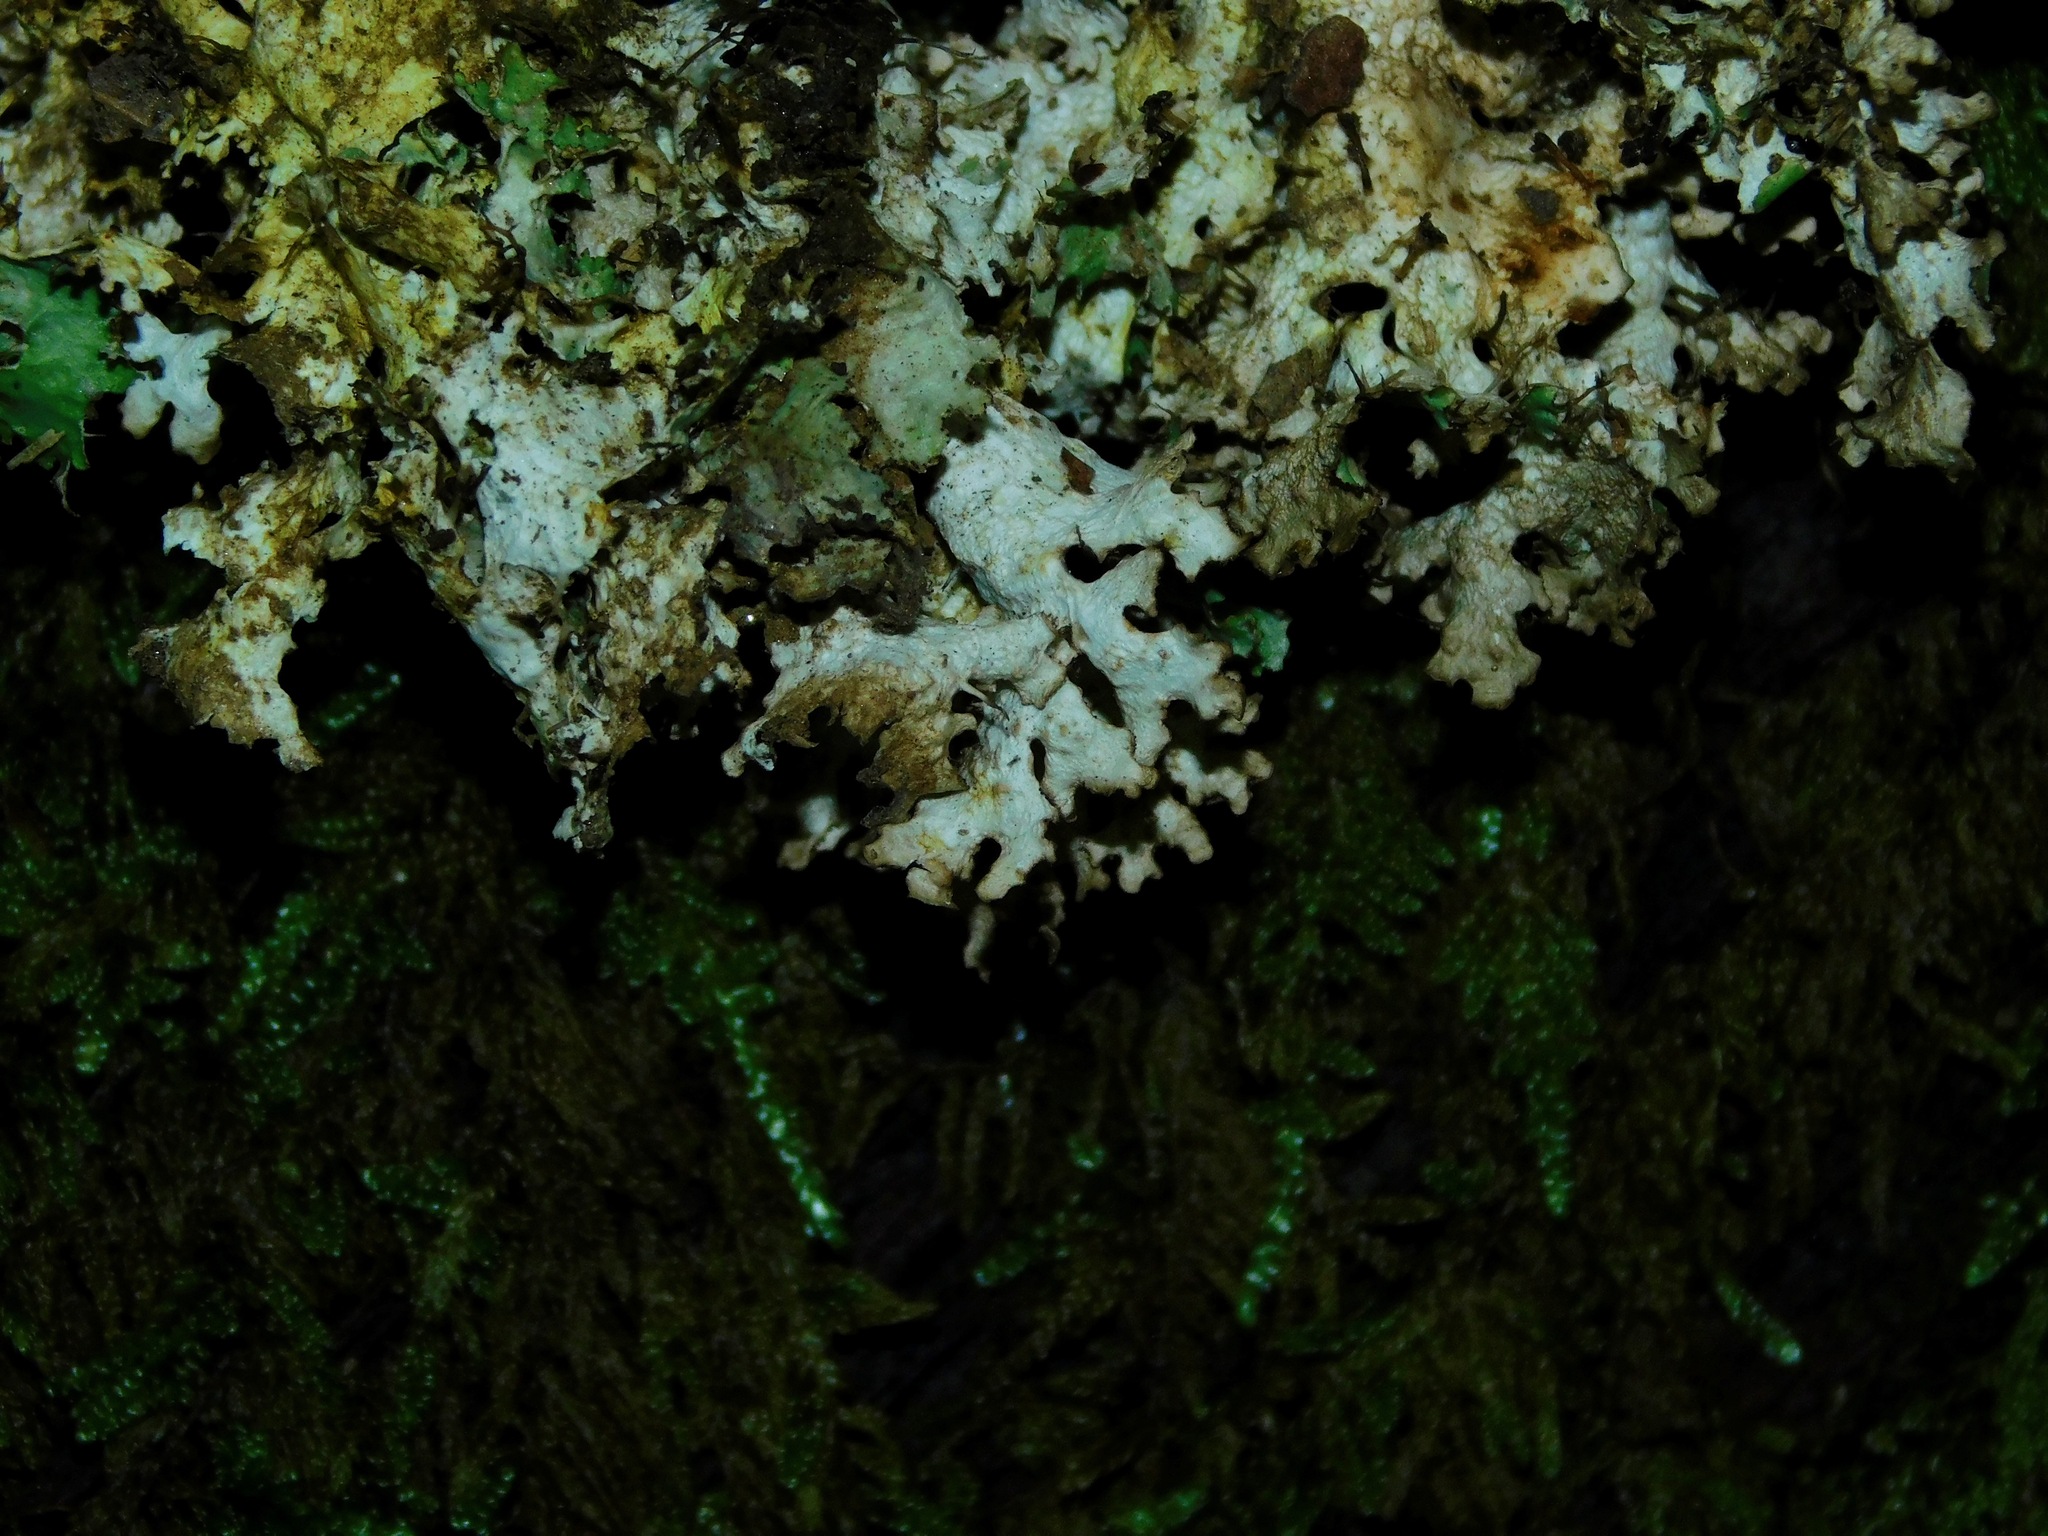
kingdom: Fungi
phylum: Ascomycota
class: Lecanoromycetes
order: Lecanorales
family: Parmeliaceae
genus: Nephromopsis
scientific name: Nephromopsis orbata
